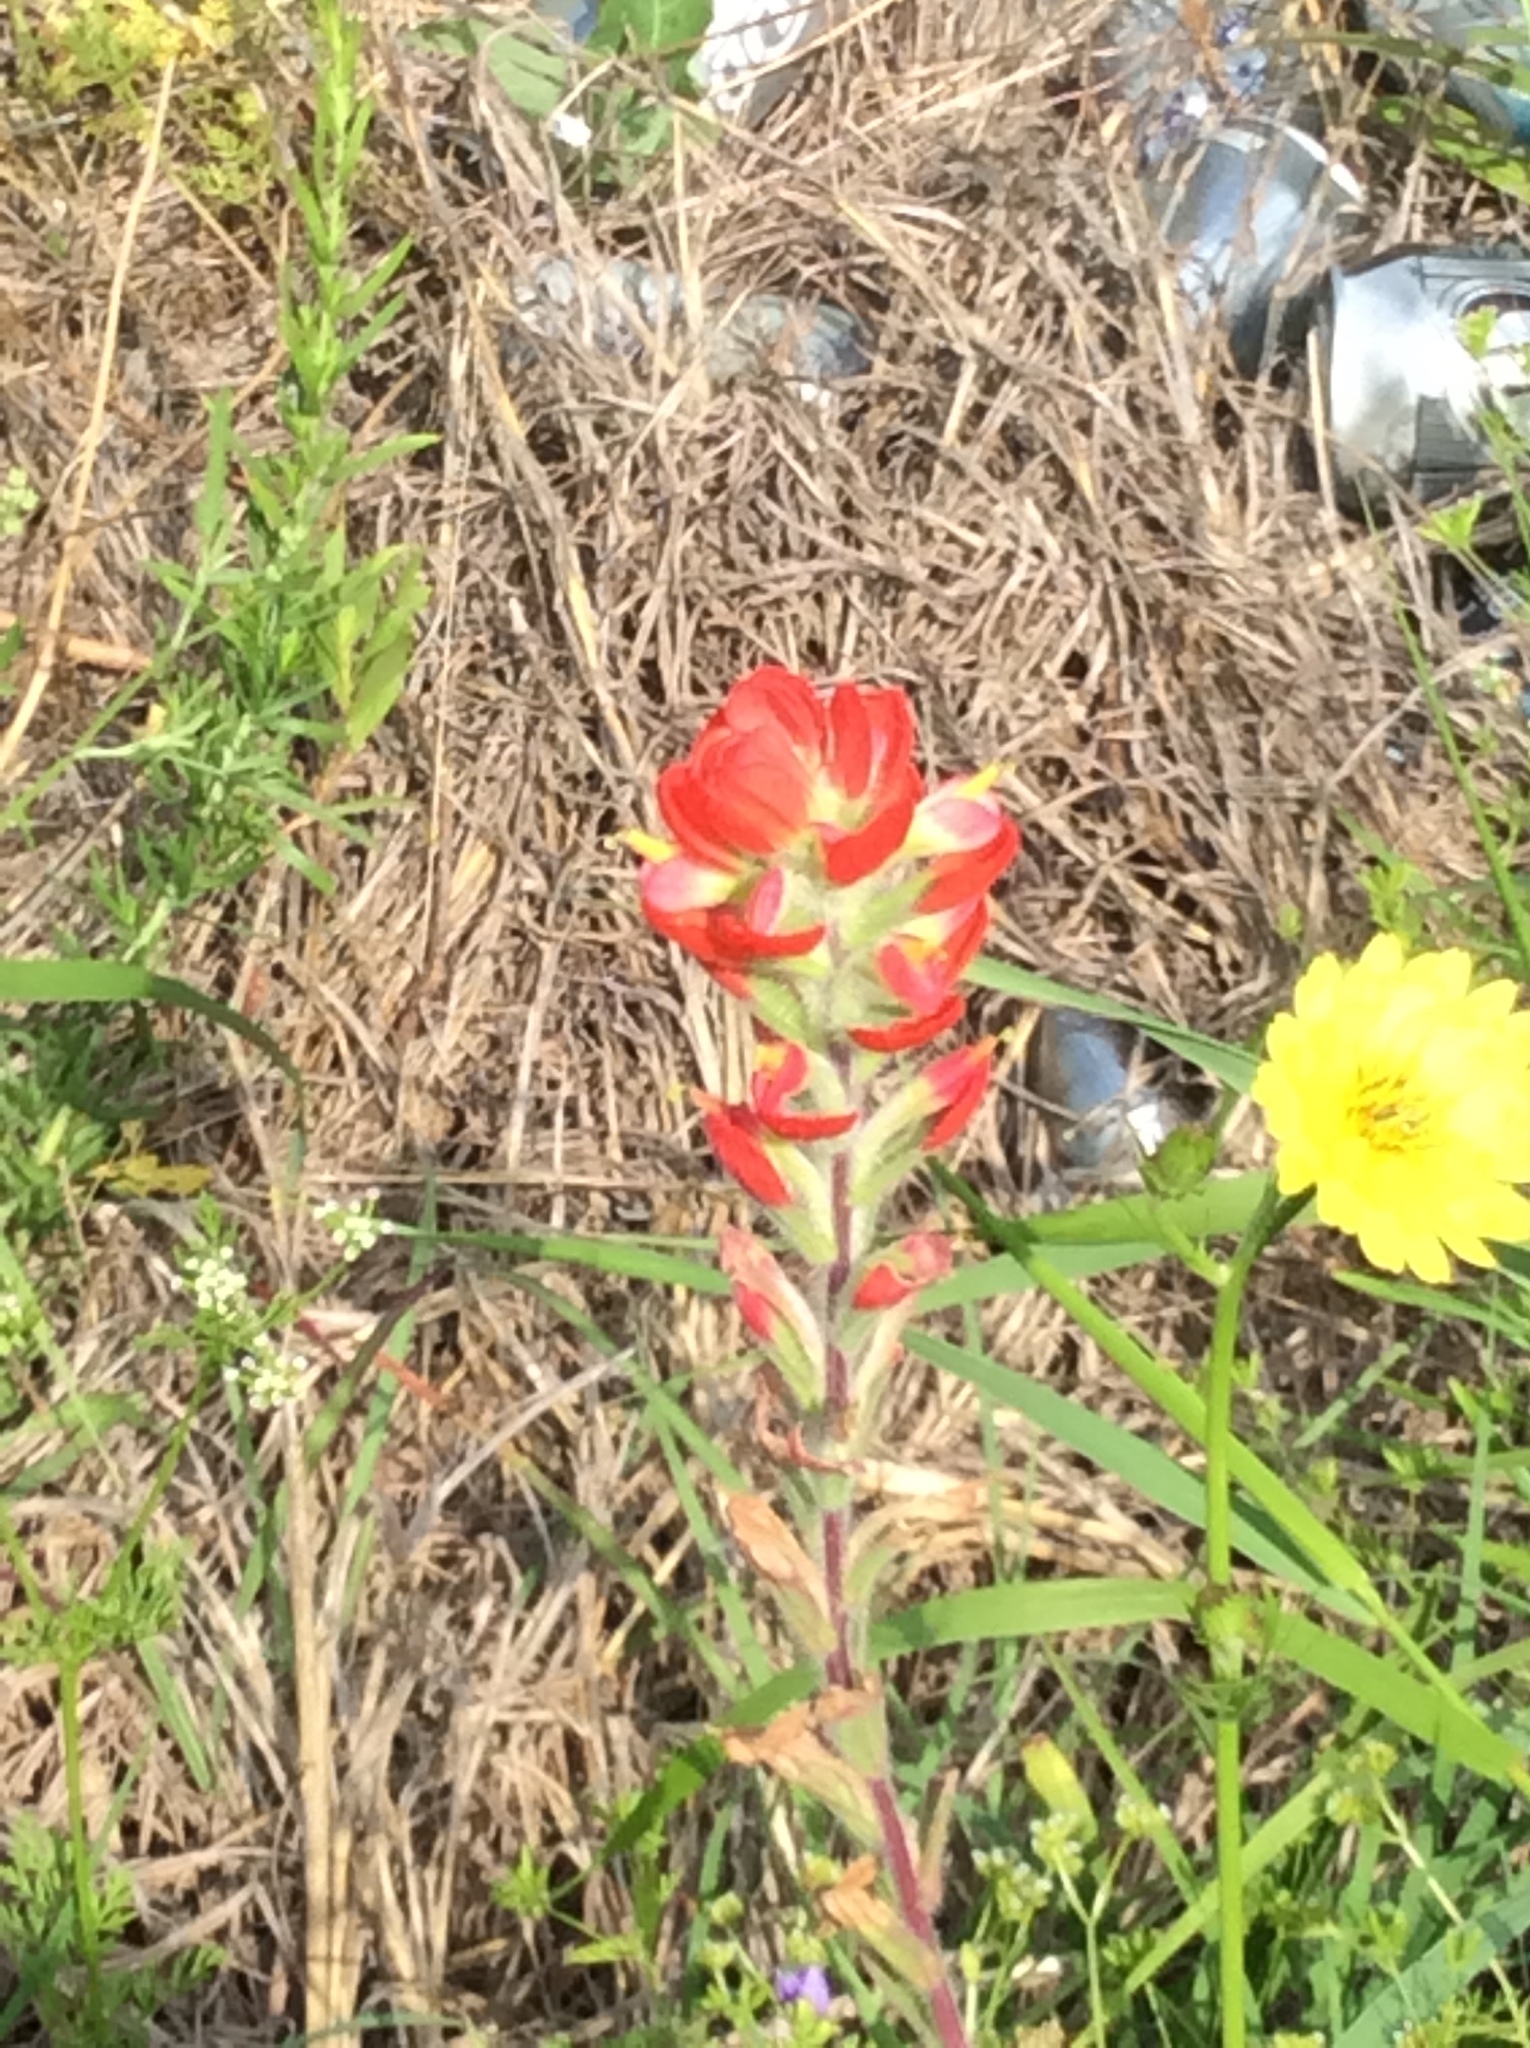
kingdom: Plantae
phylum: Tracheophyta
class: Magnoliopsida
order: Lamiales
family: Orobanchaceae
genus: Castilleja
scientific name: Castilleja indivisa
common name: Texas paintbrush
